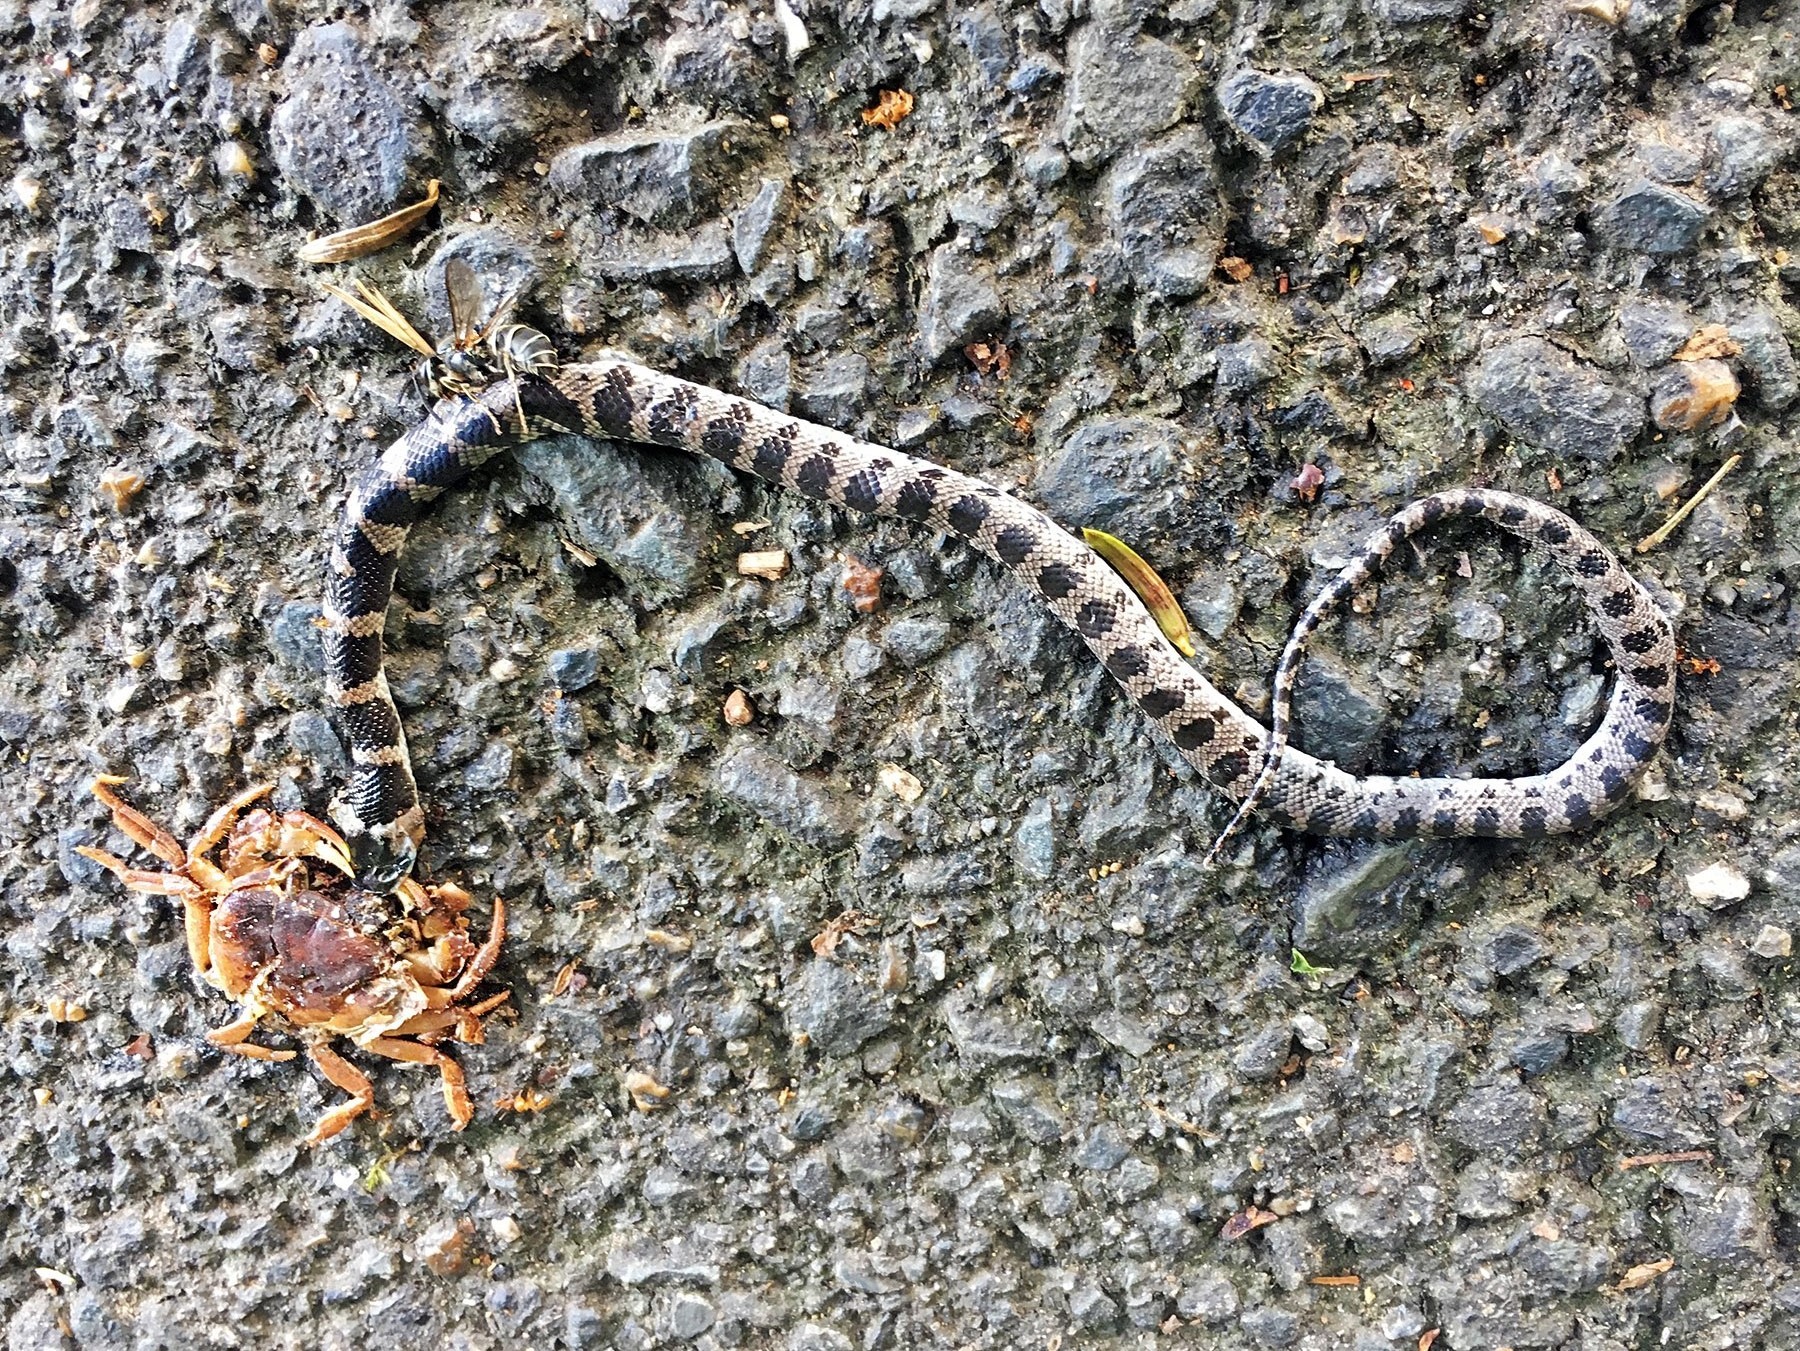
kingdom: Animalia
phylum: Chordata
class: Squamata
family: Colubridae
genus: Lycodon
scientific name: Lycodon orientalis
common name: Oriental odd-tooth snake
